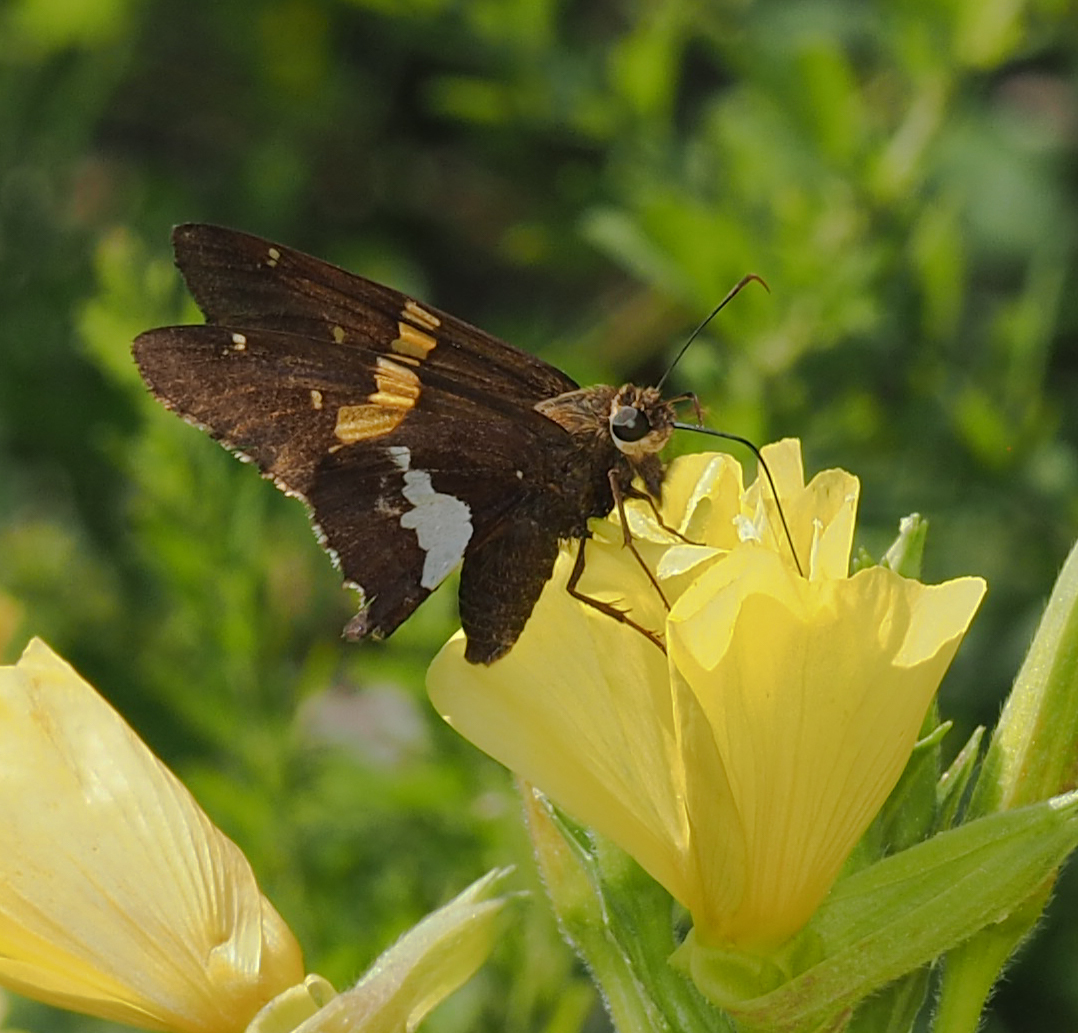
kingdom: Animalia
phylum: Arthropoda
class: Insecta
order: Lepidoptera
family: Hesperiidae
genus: Epargyreus
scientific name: Epargyreus clarus
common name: Silver-spotted skipper
